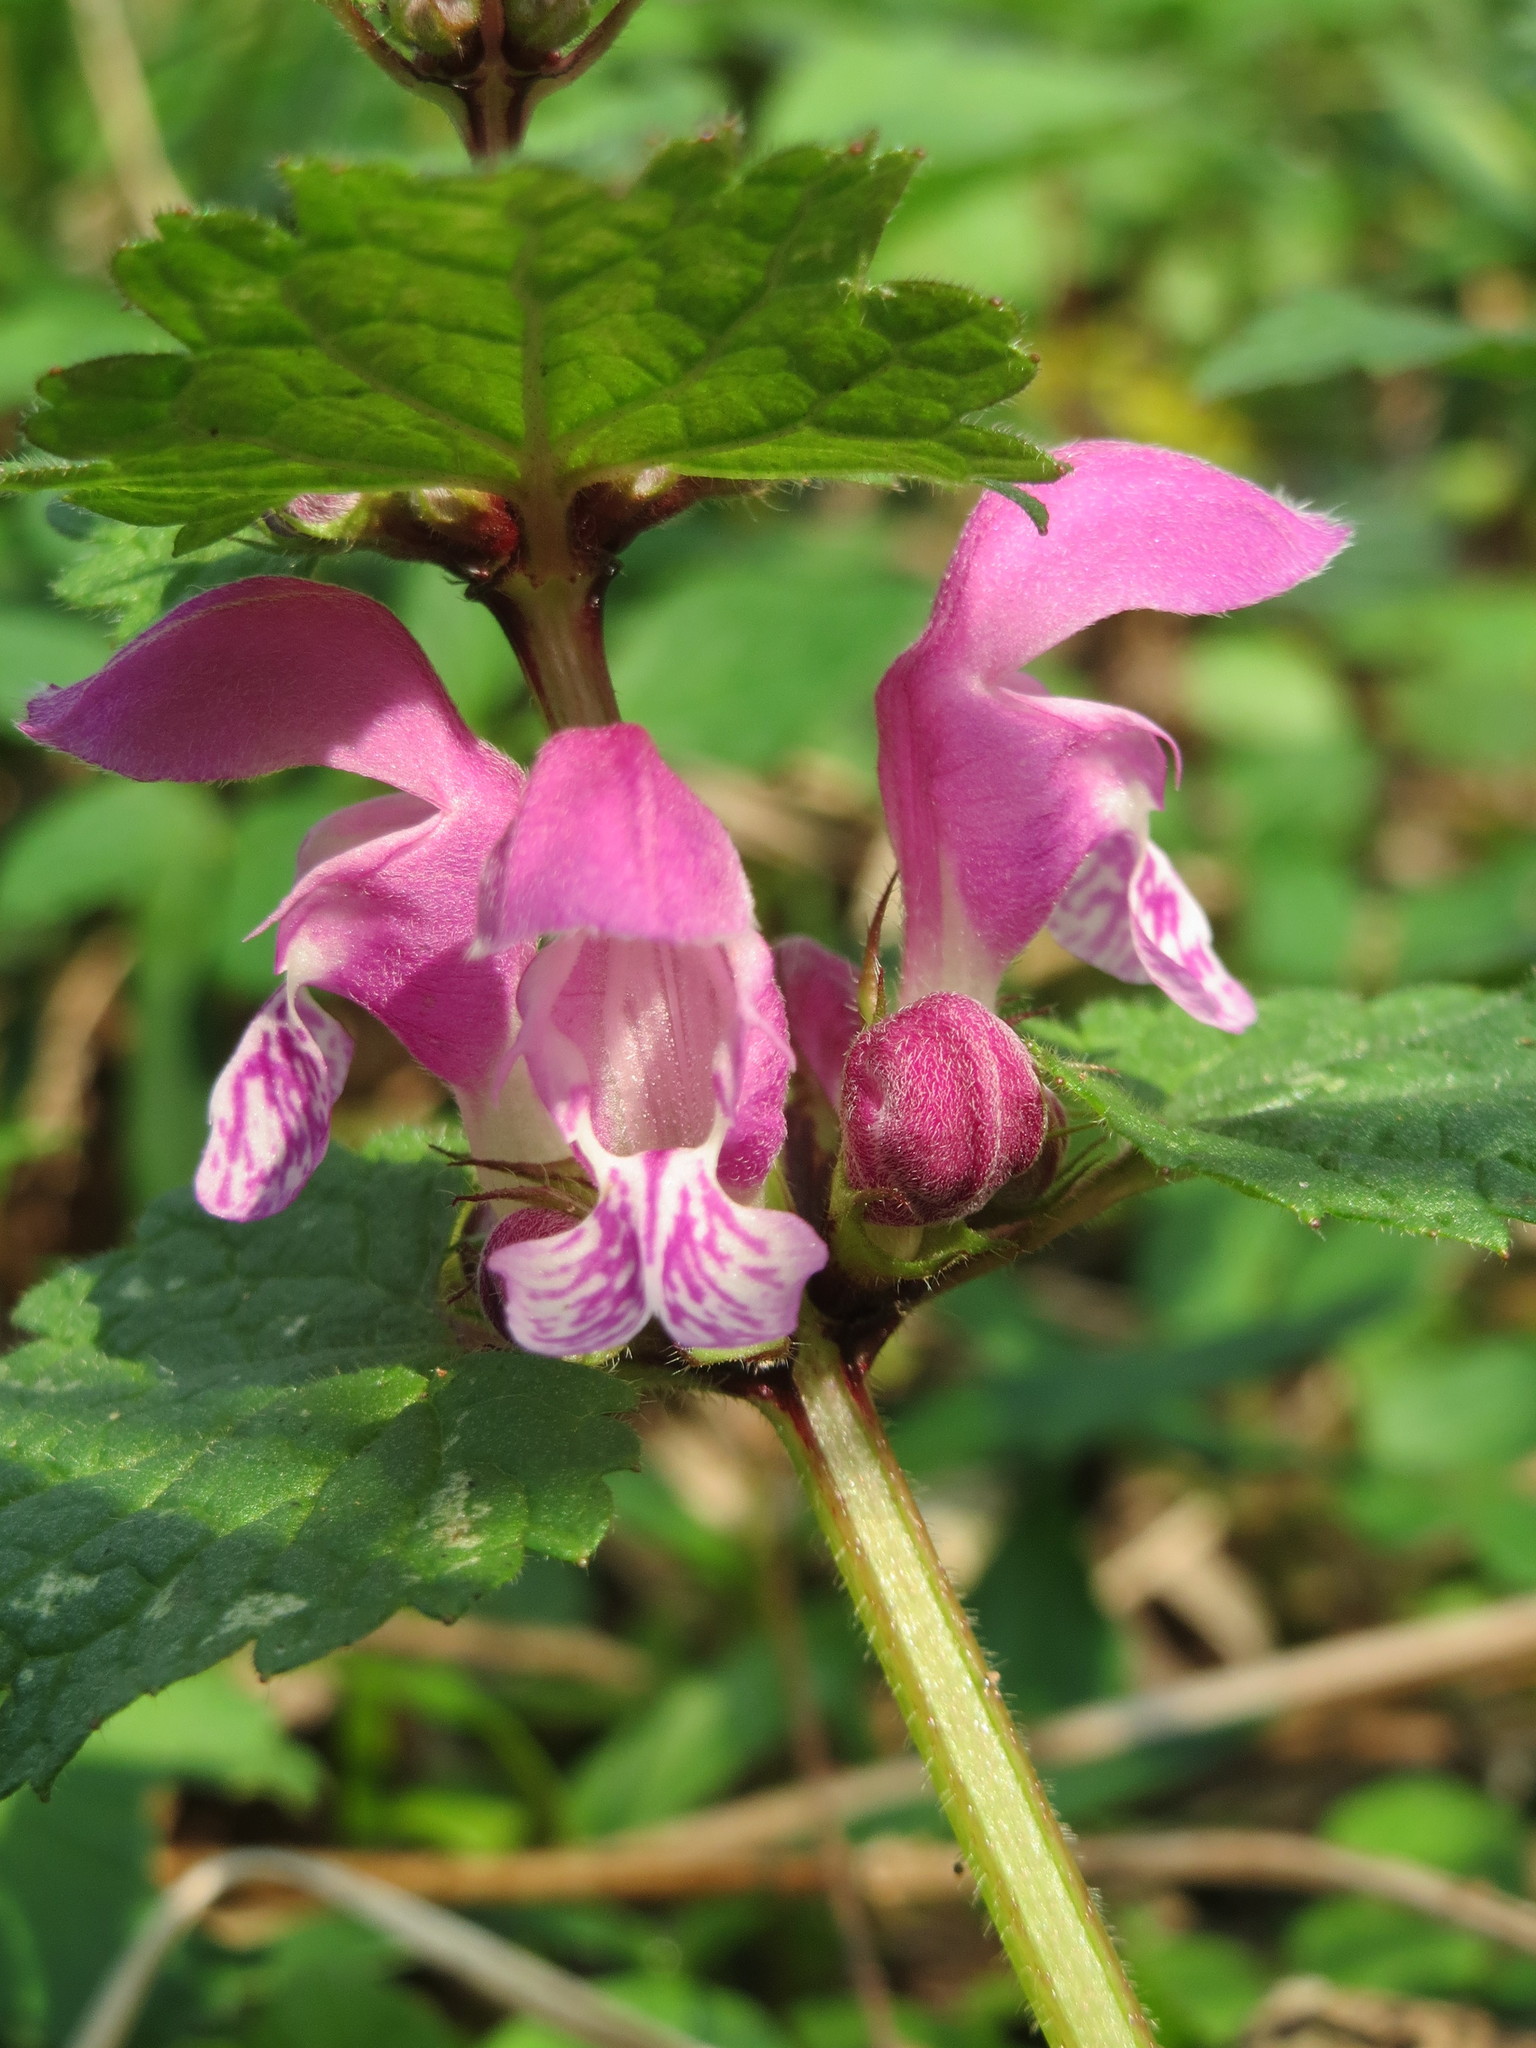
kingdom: Plantae
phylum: Tracheophyta
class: Magnoliopsida
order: Lamiales
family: Lamiaceae
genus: Lamium
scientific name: Lamium maculatum
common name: Spotted dead-nettle
